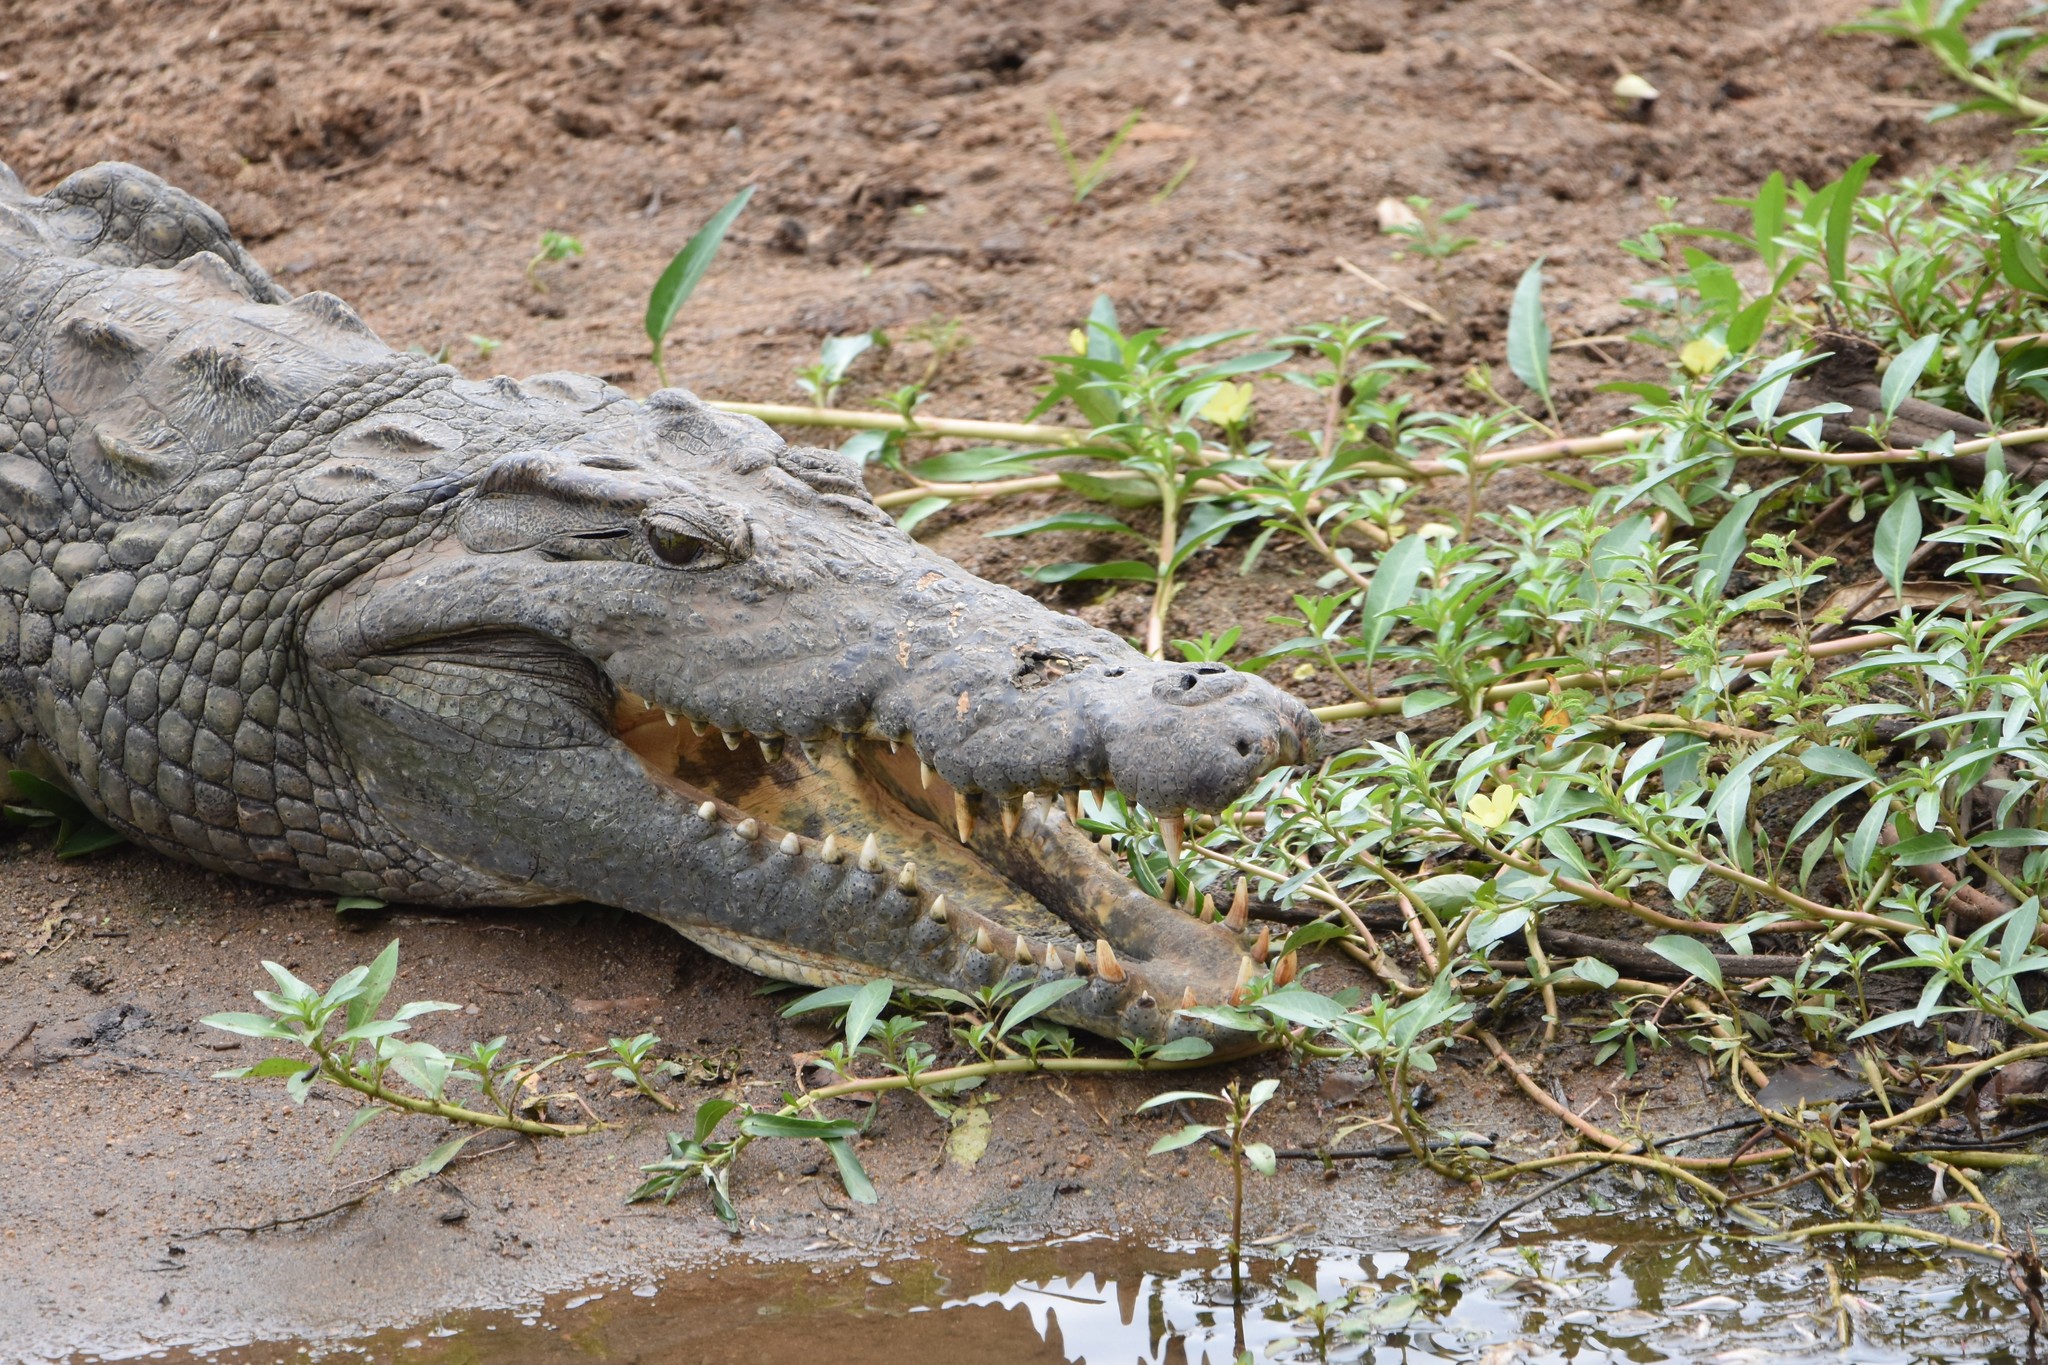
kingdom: Animalia
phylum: Chordata
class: Crocodylia
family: Crocodylidae
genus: Crocodylus
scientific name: Crocodylus niloticus
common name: Nile crocodile
